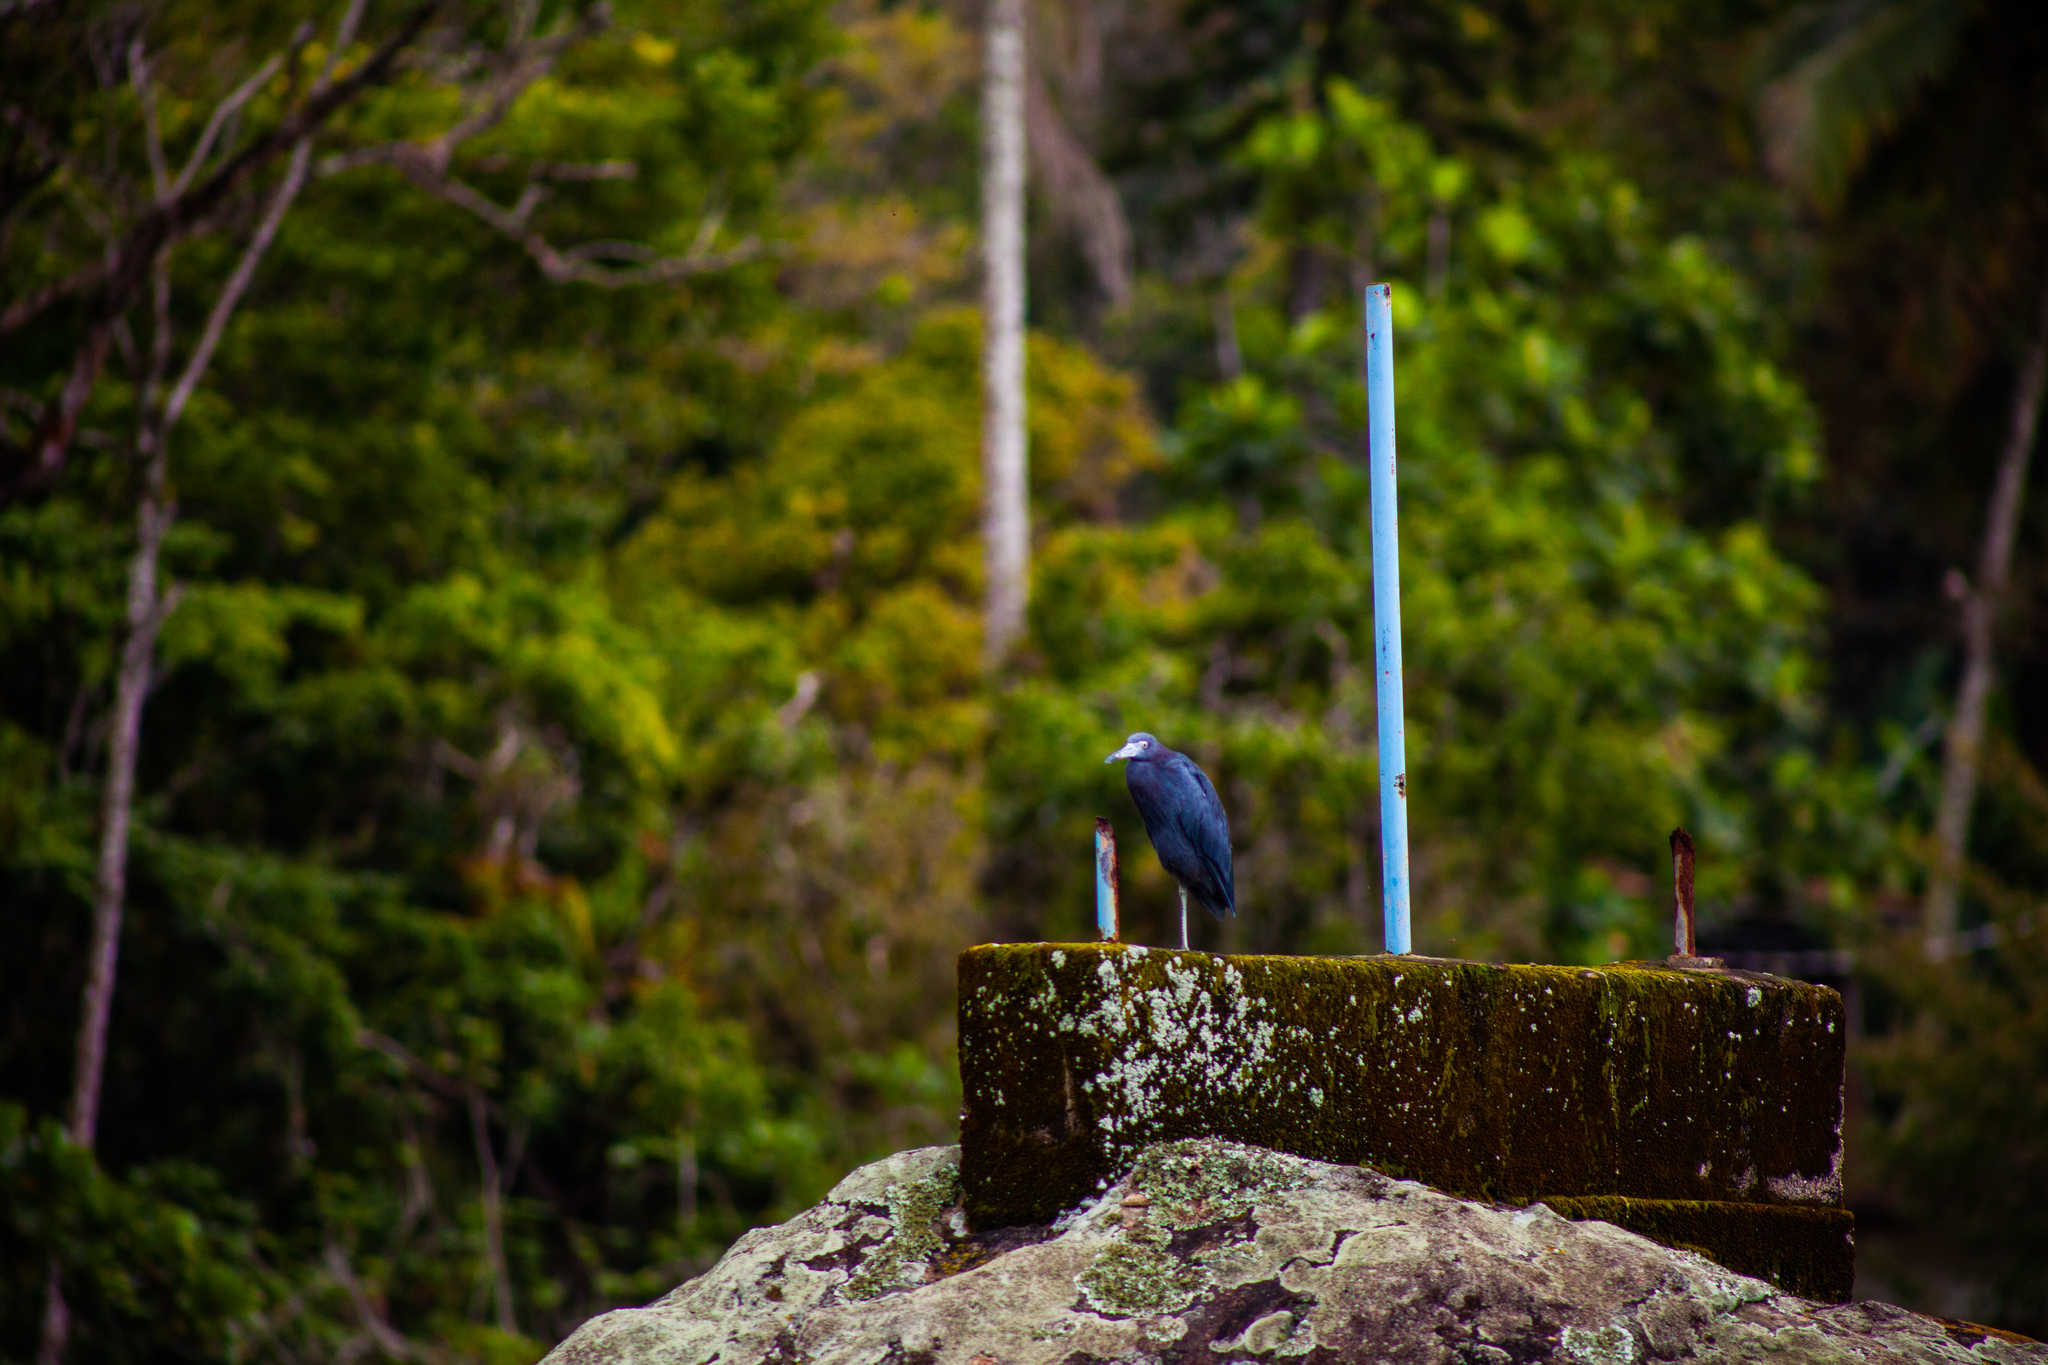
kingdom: Animalia
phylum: Chordata
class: Aves
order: Pelecaniformes
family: Ardeidae
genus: Egretta
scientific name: Egretta caerulea
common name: Little blue heron
